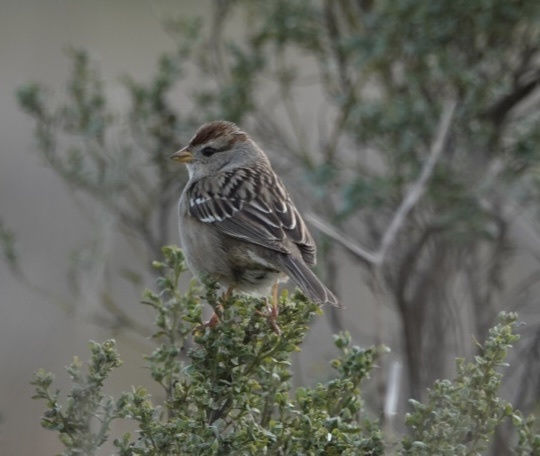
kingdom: Animalia
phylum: Chordata
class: Aves
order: Passeriformes
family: Passerellidae
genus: Zonotrichia
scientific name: Zonotrichia leucophrys
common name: White-crowned sparrow
